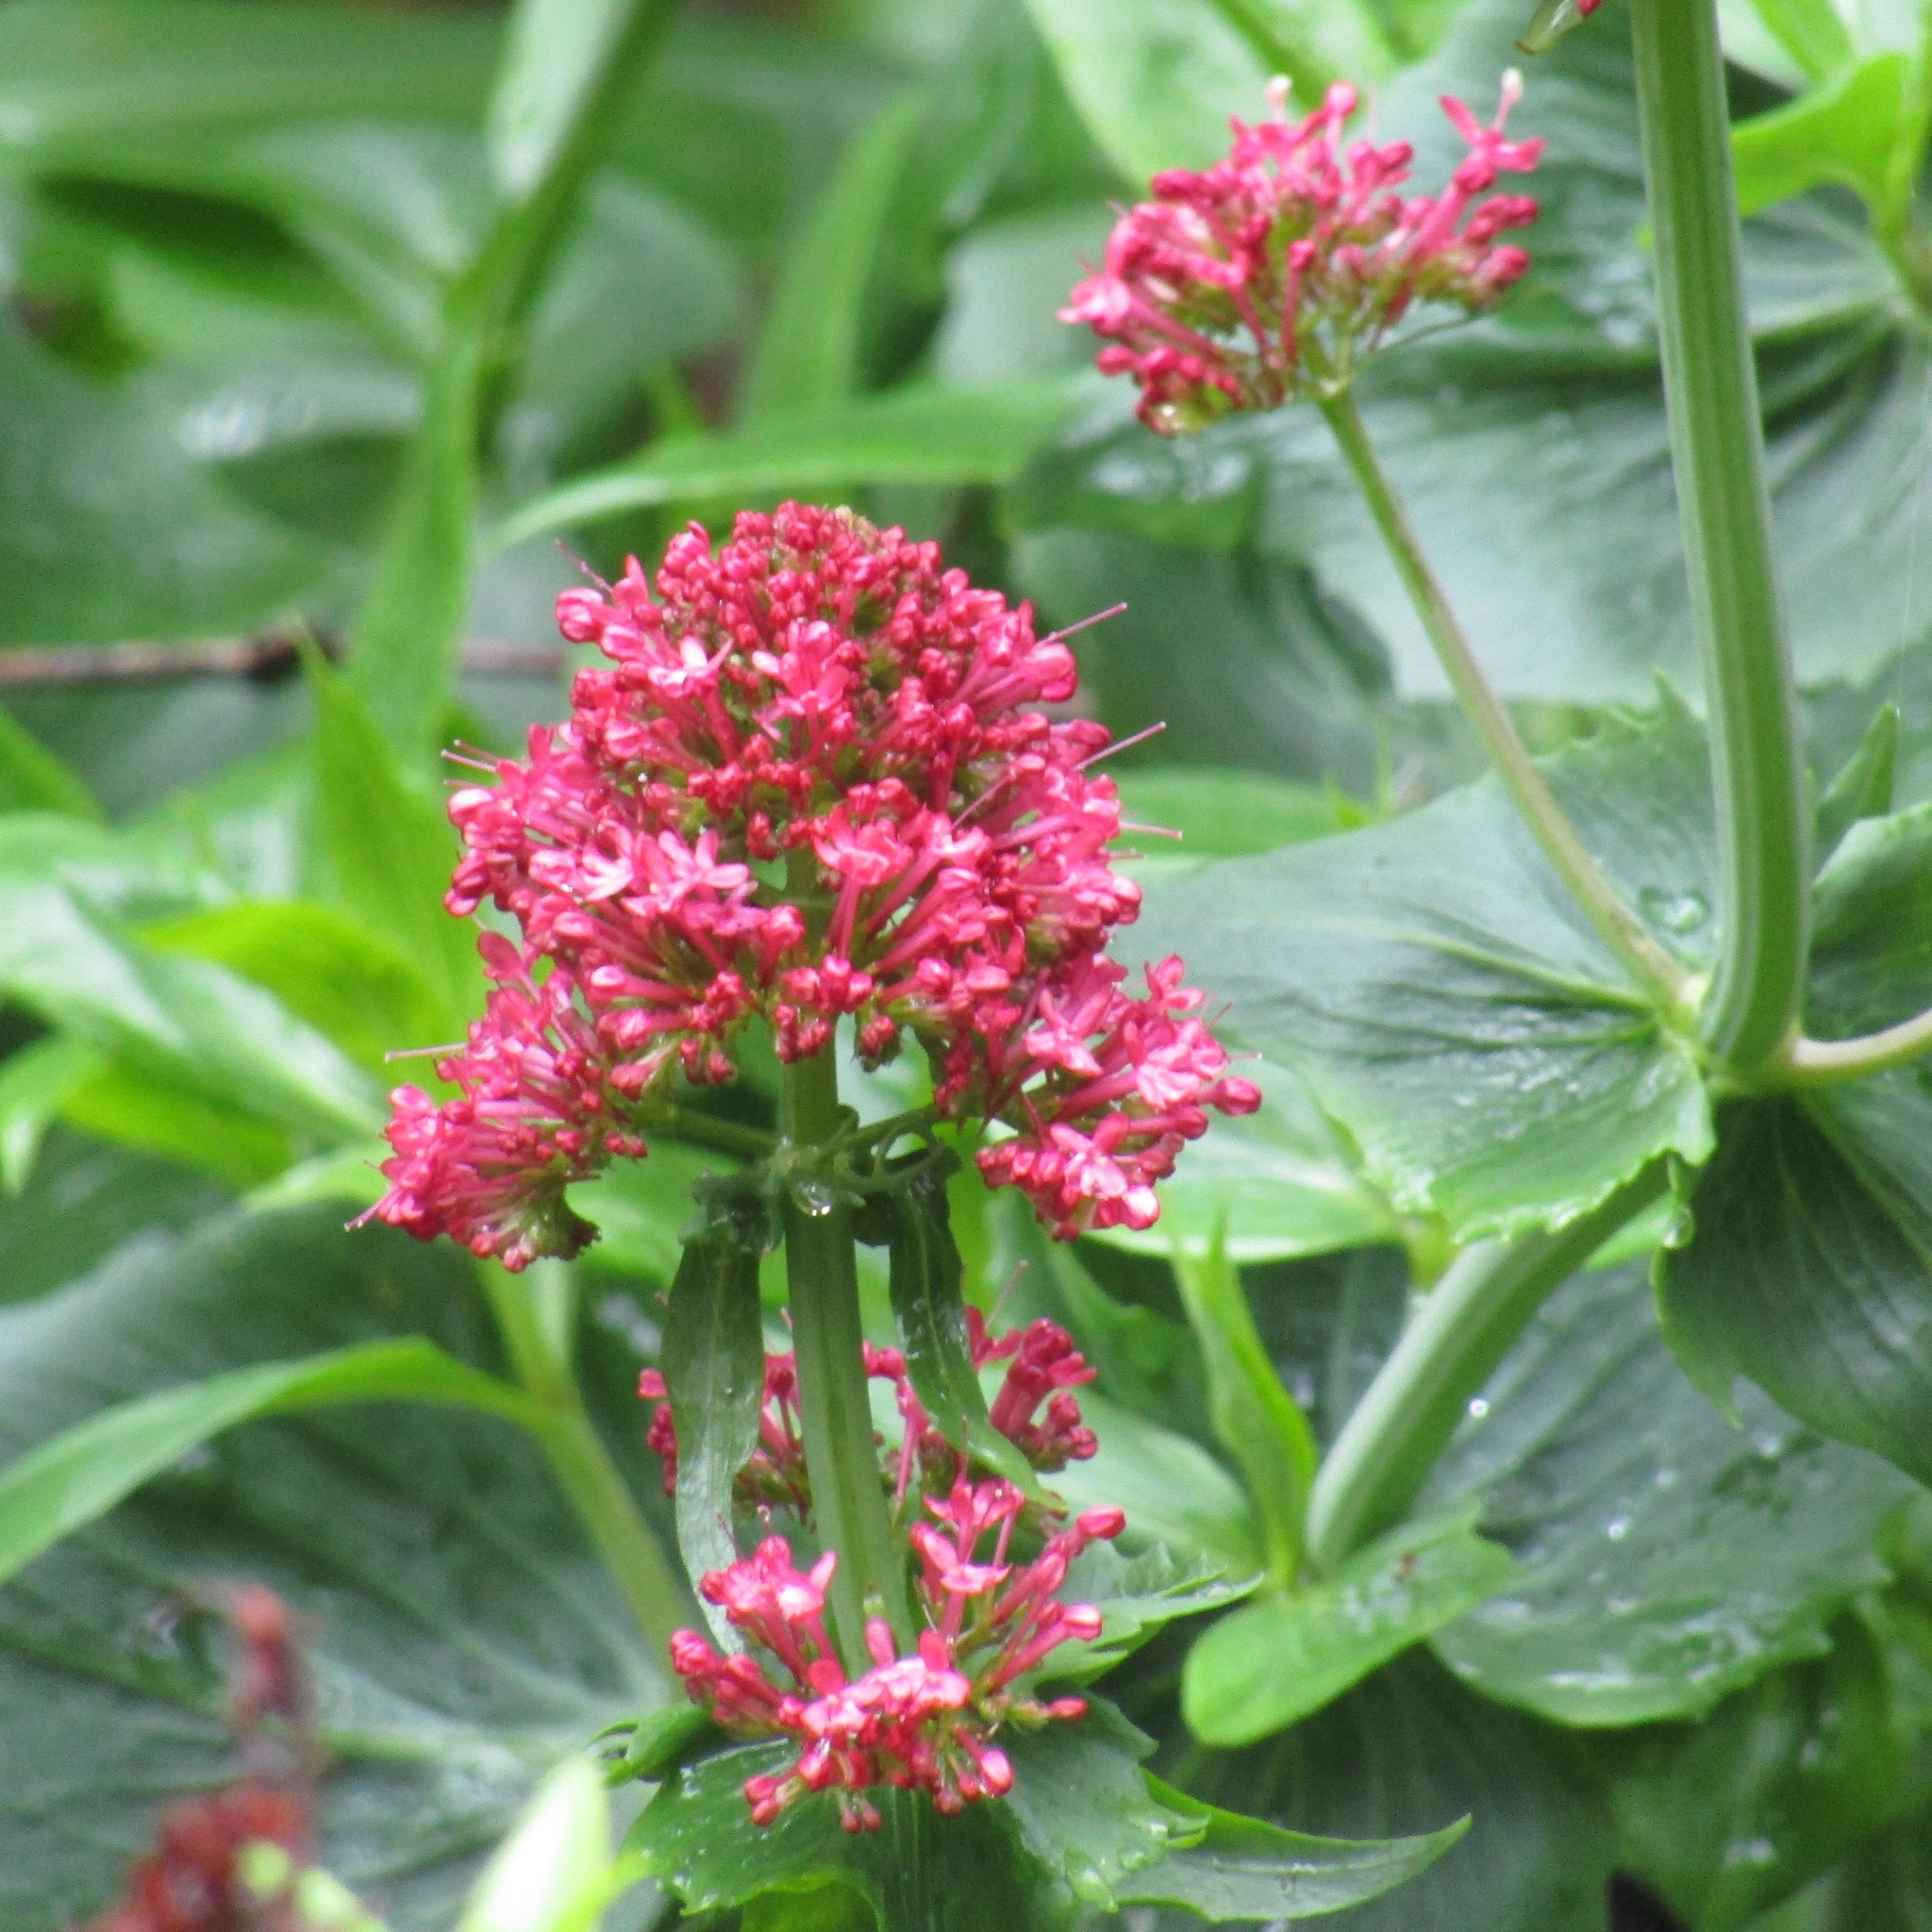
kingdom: Plantae
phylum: Tracheophyta
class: Magnoliopsida
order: Dipsacales
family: Caprifoliaceae
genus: Centranthus
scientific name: Centranthus ruber
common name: Red valerian
